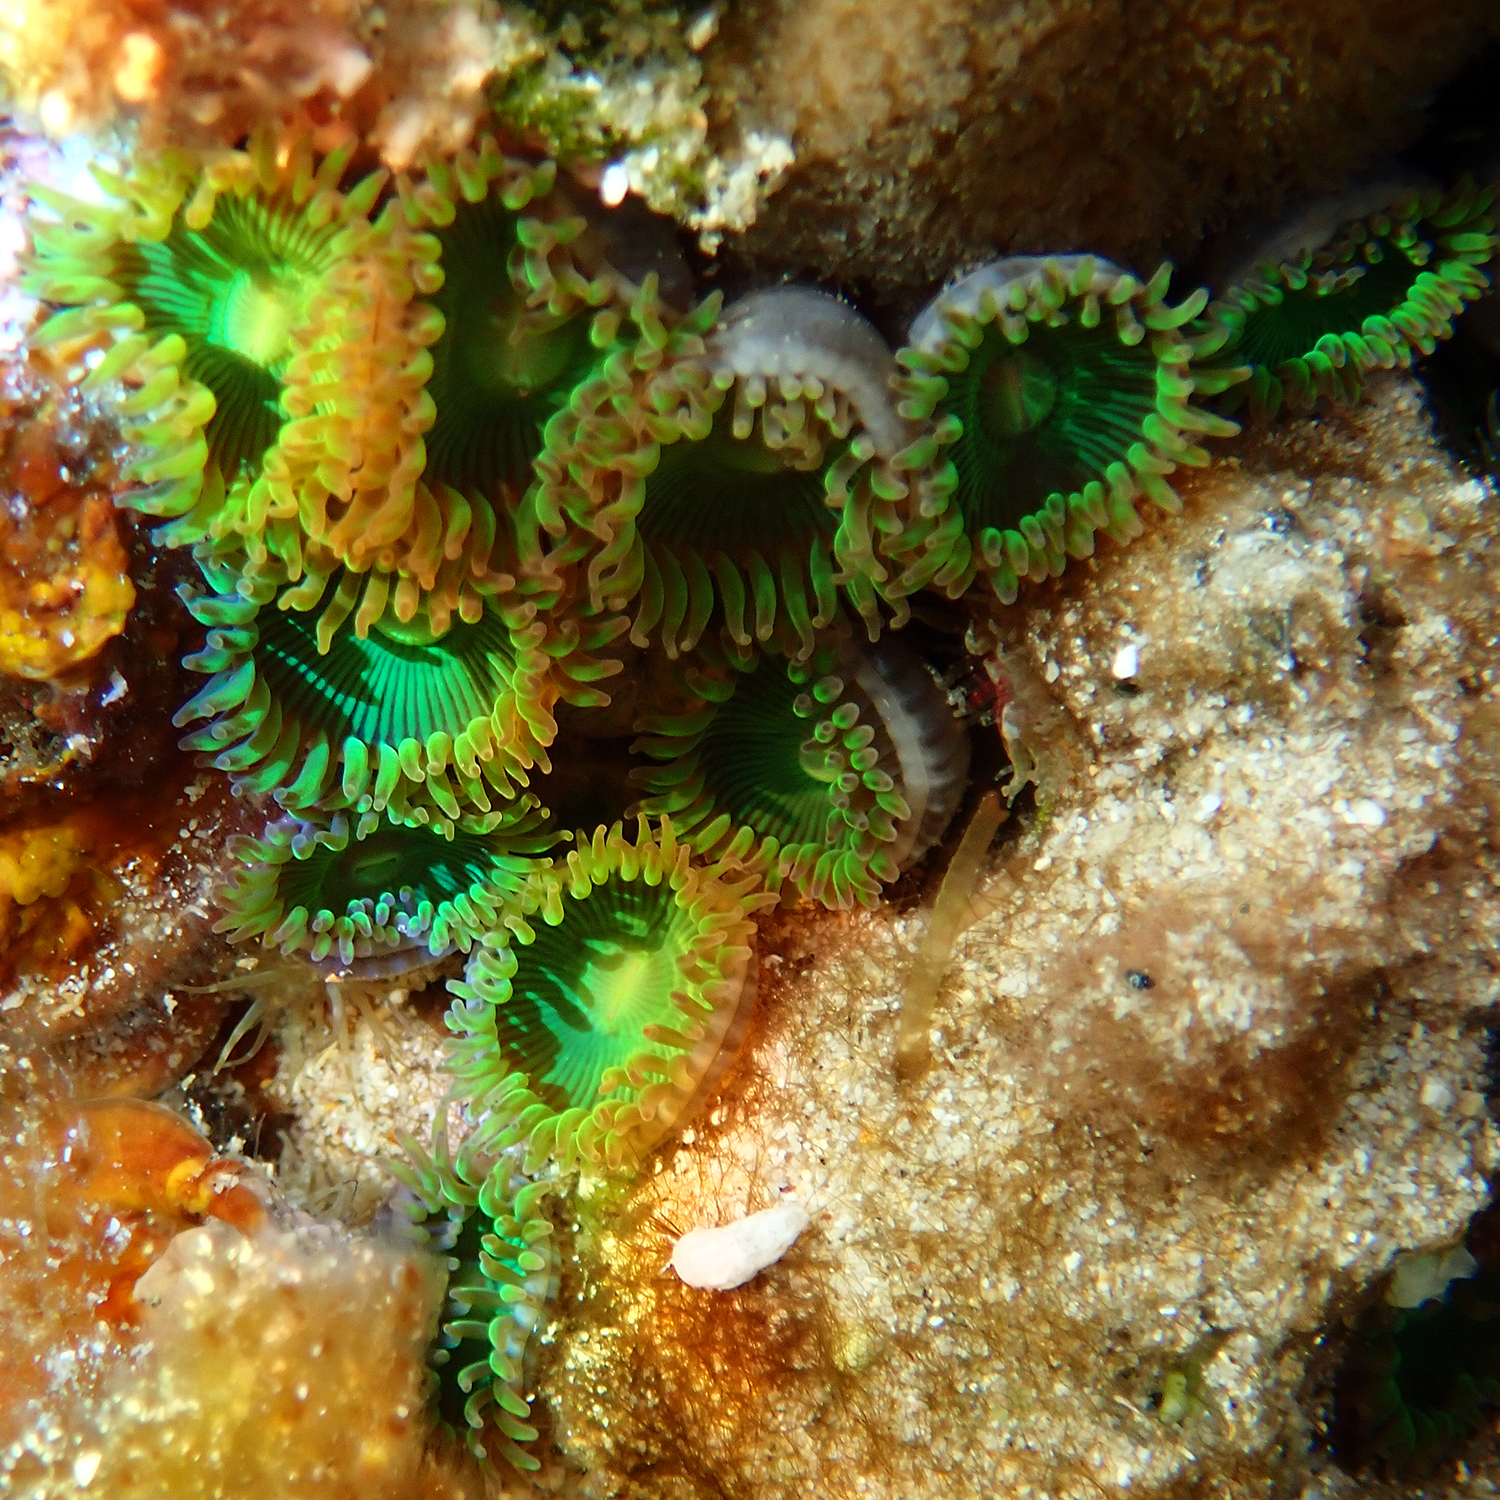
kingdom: Animalia
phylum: Cnidaria
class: Anthozoa
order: Zoantharia
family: Zoanthidae
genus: Zoanthus
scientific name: Zoanthus gigantus
